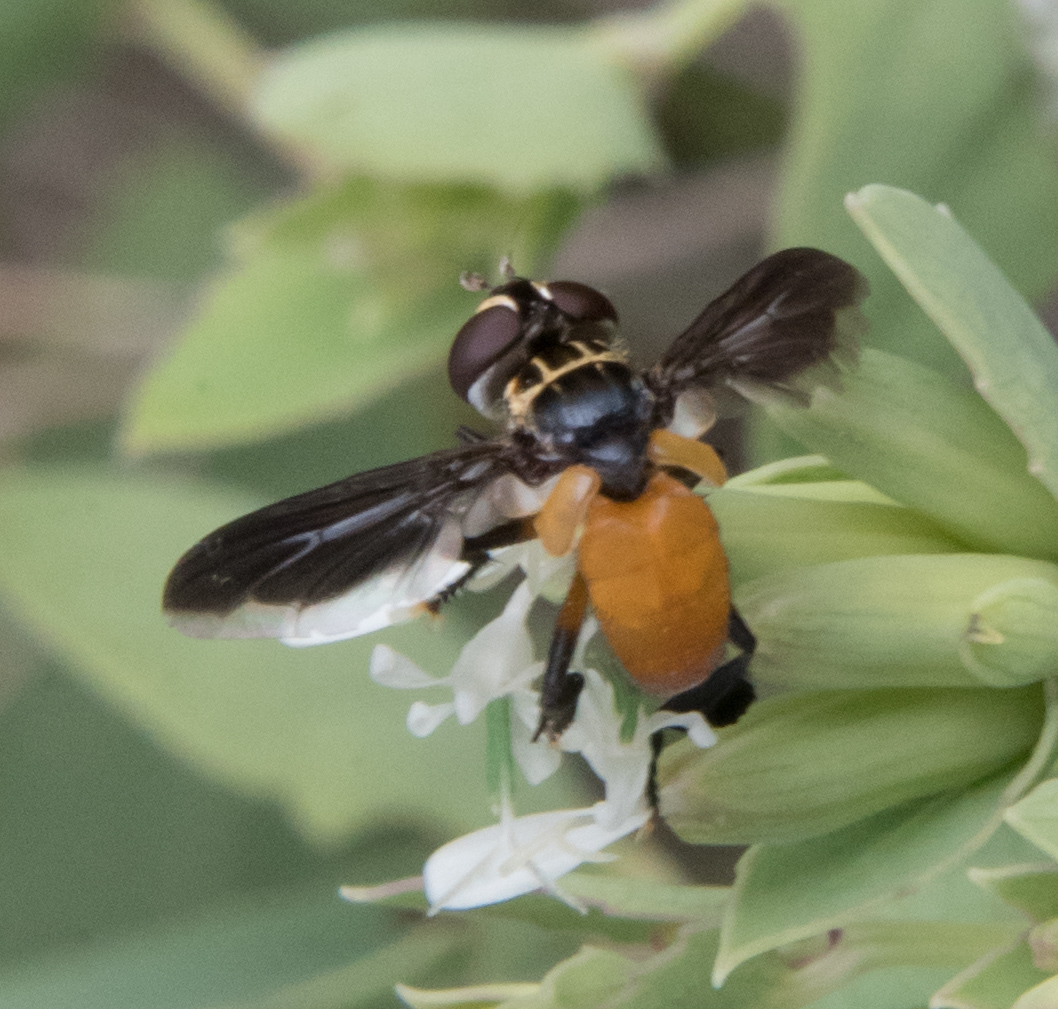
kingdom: Animalia
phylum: Arthropoda
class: Insecta
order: Diptera
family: Tachinidae
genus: Trichopoda
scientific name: Trichopoda pennipes
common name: Tachinid fly
